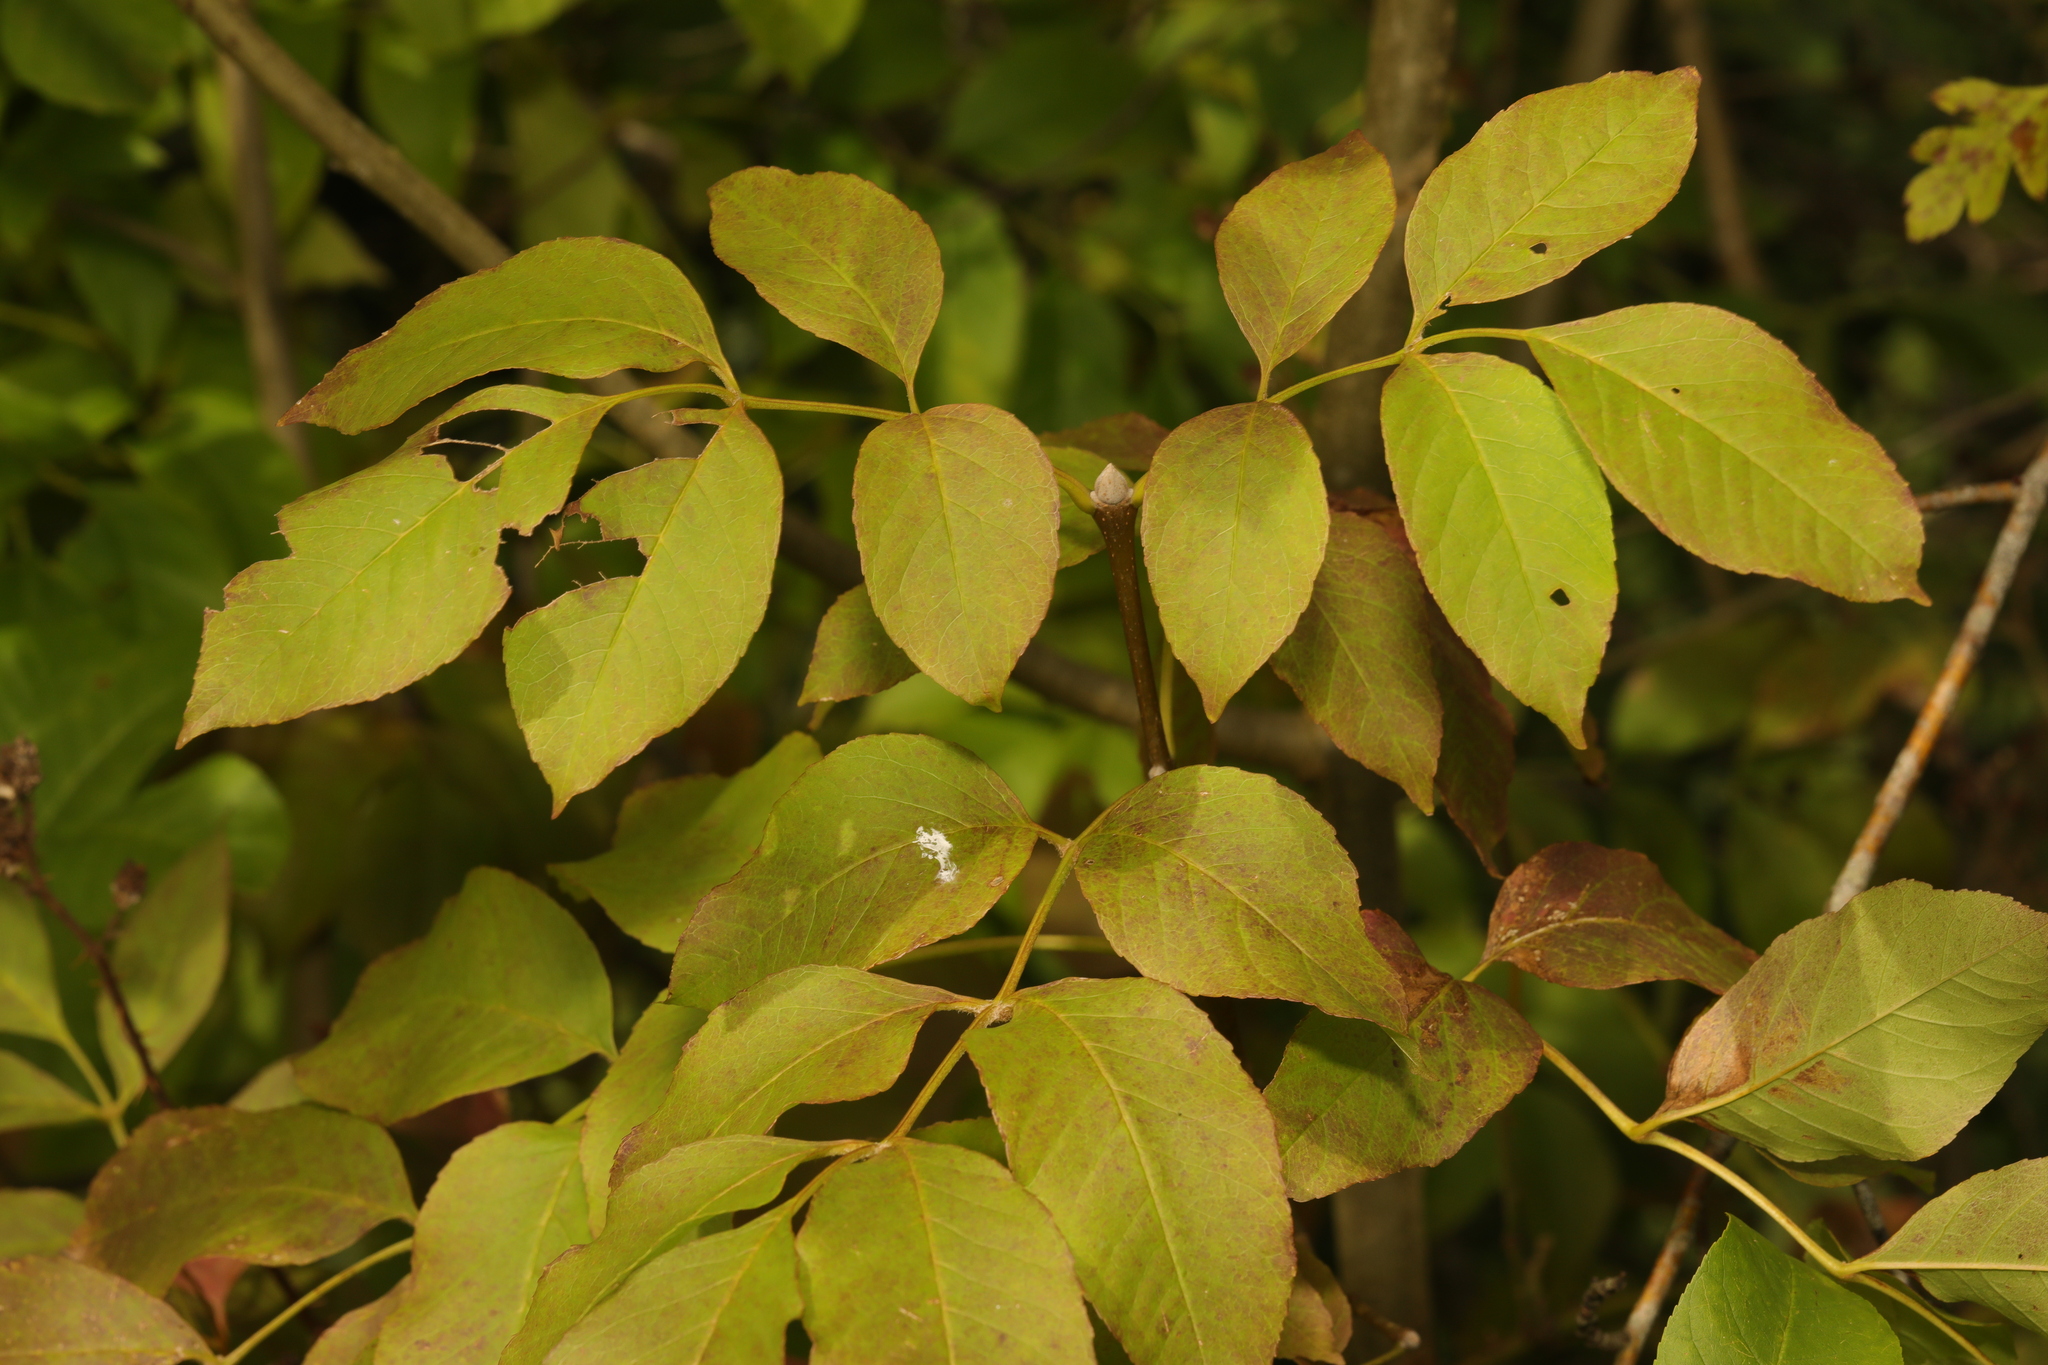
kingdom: Plantae
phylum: Tracheophyta
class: Magnoliopsida
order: Lamiales
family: Oleaceae
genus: Fraxinus
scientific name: Fraxinus ornus
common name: Manna ash
